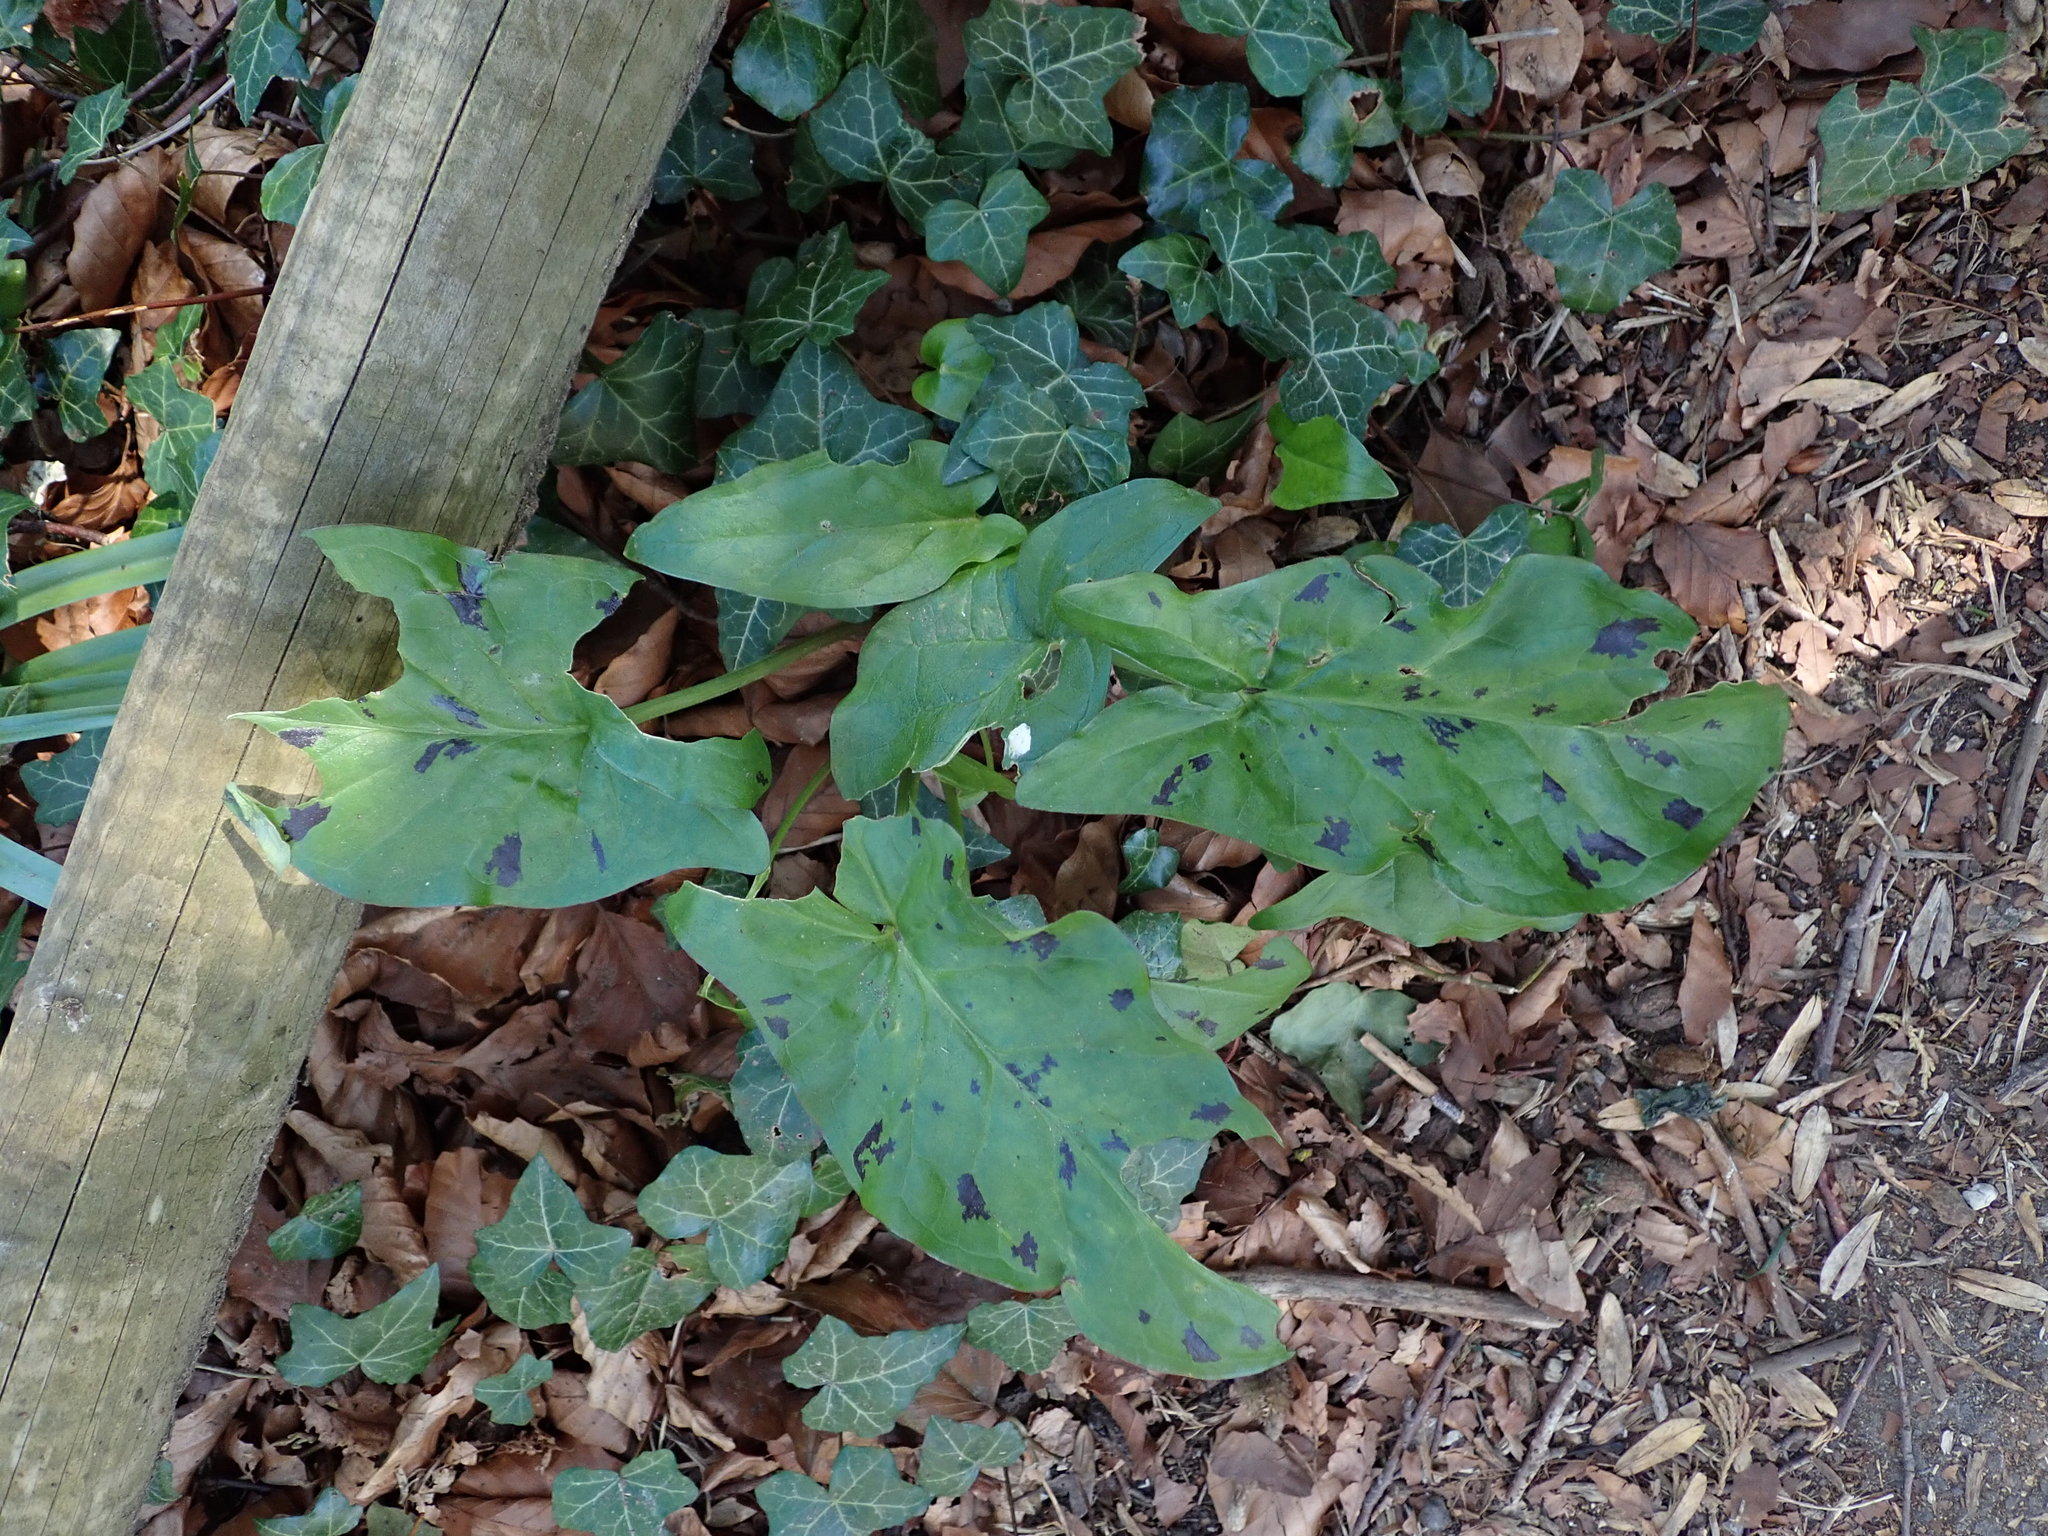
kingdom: Plantae
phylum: Tracheophyta
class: Liliopsida
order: Alismatales
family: Araceae
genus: Arum
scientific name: Arum maculatum
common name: Lords-and-ladies
